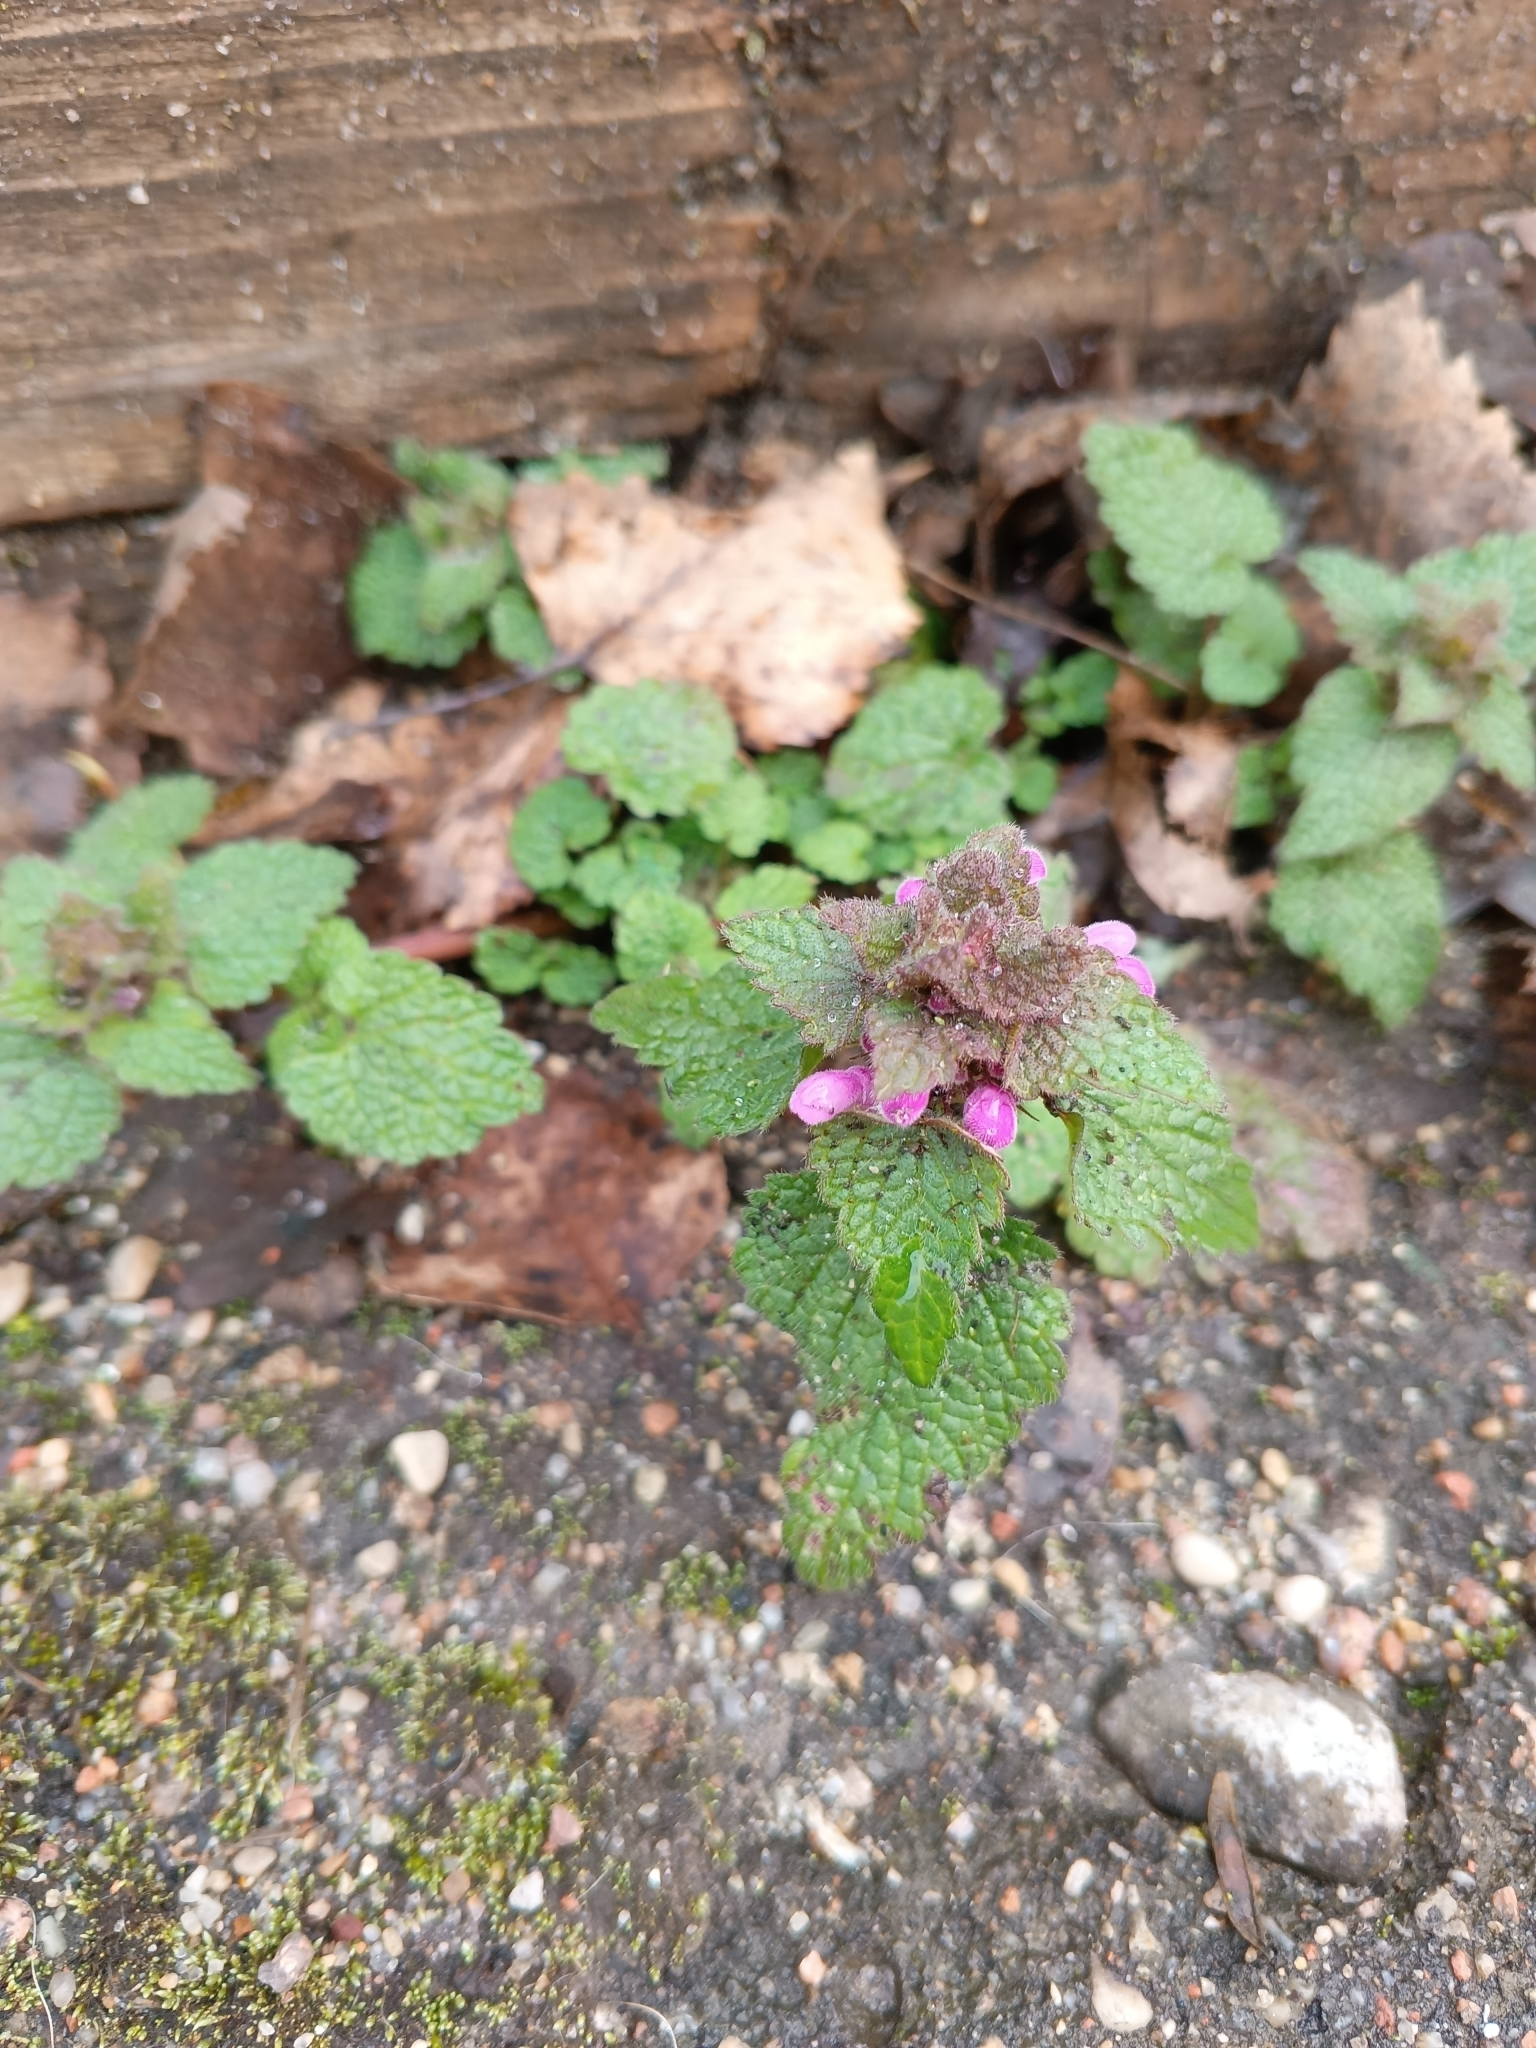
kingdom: Plantae
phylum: Tracheophyta
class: Magnoliopsida
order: Lamiales
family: Lamiaceae
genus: Lamium
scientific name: Lamium purpureum
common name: Red dead-nettle
